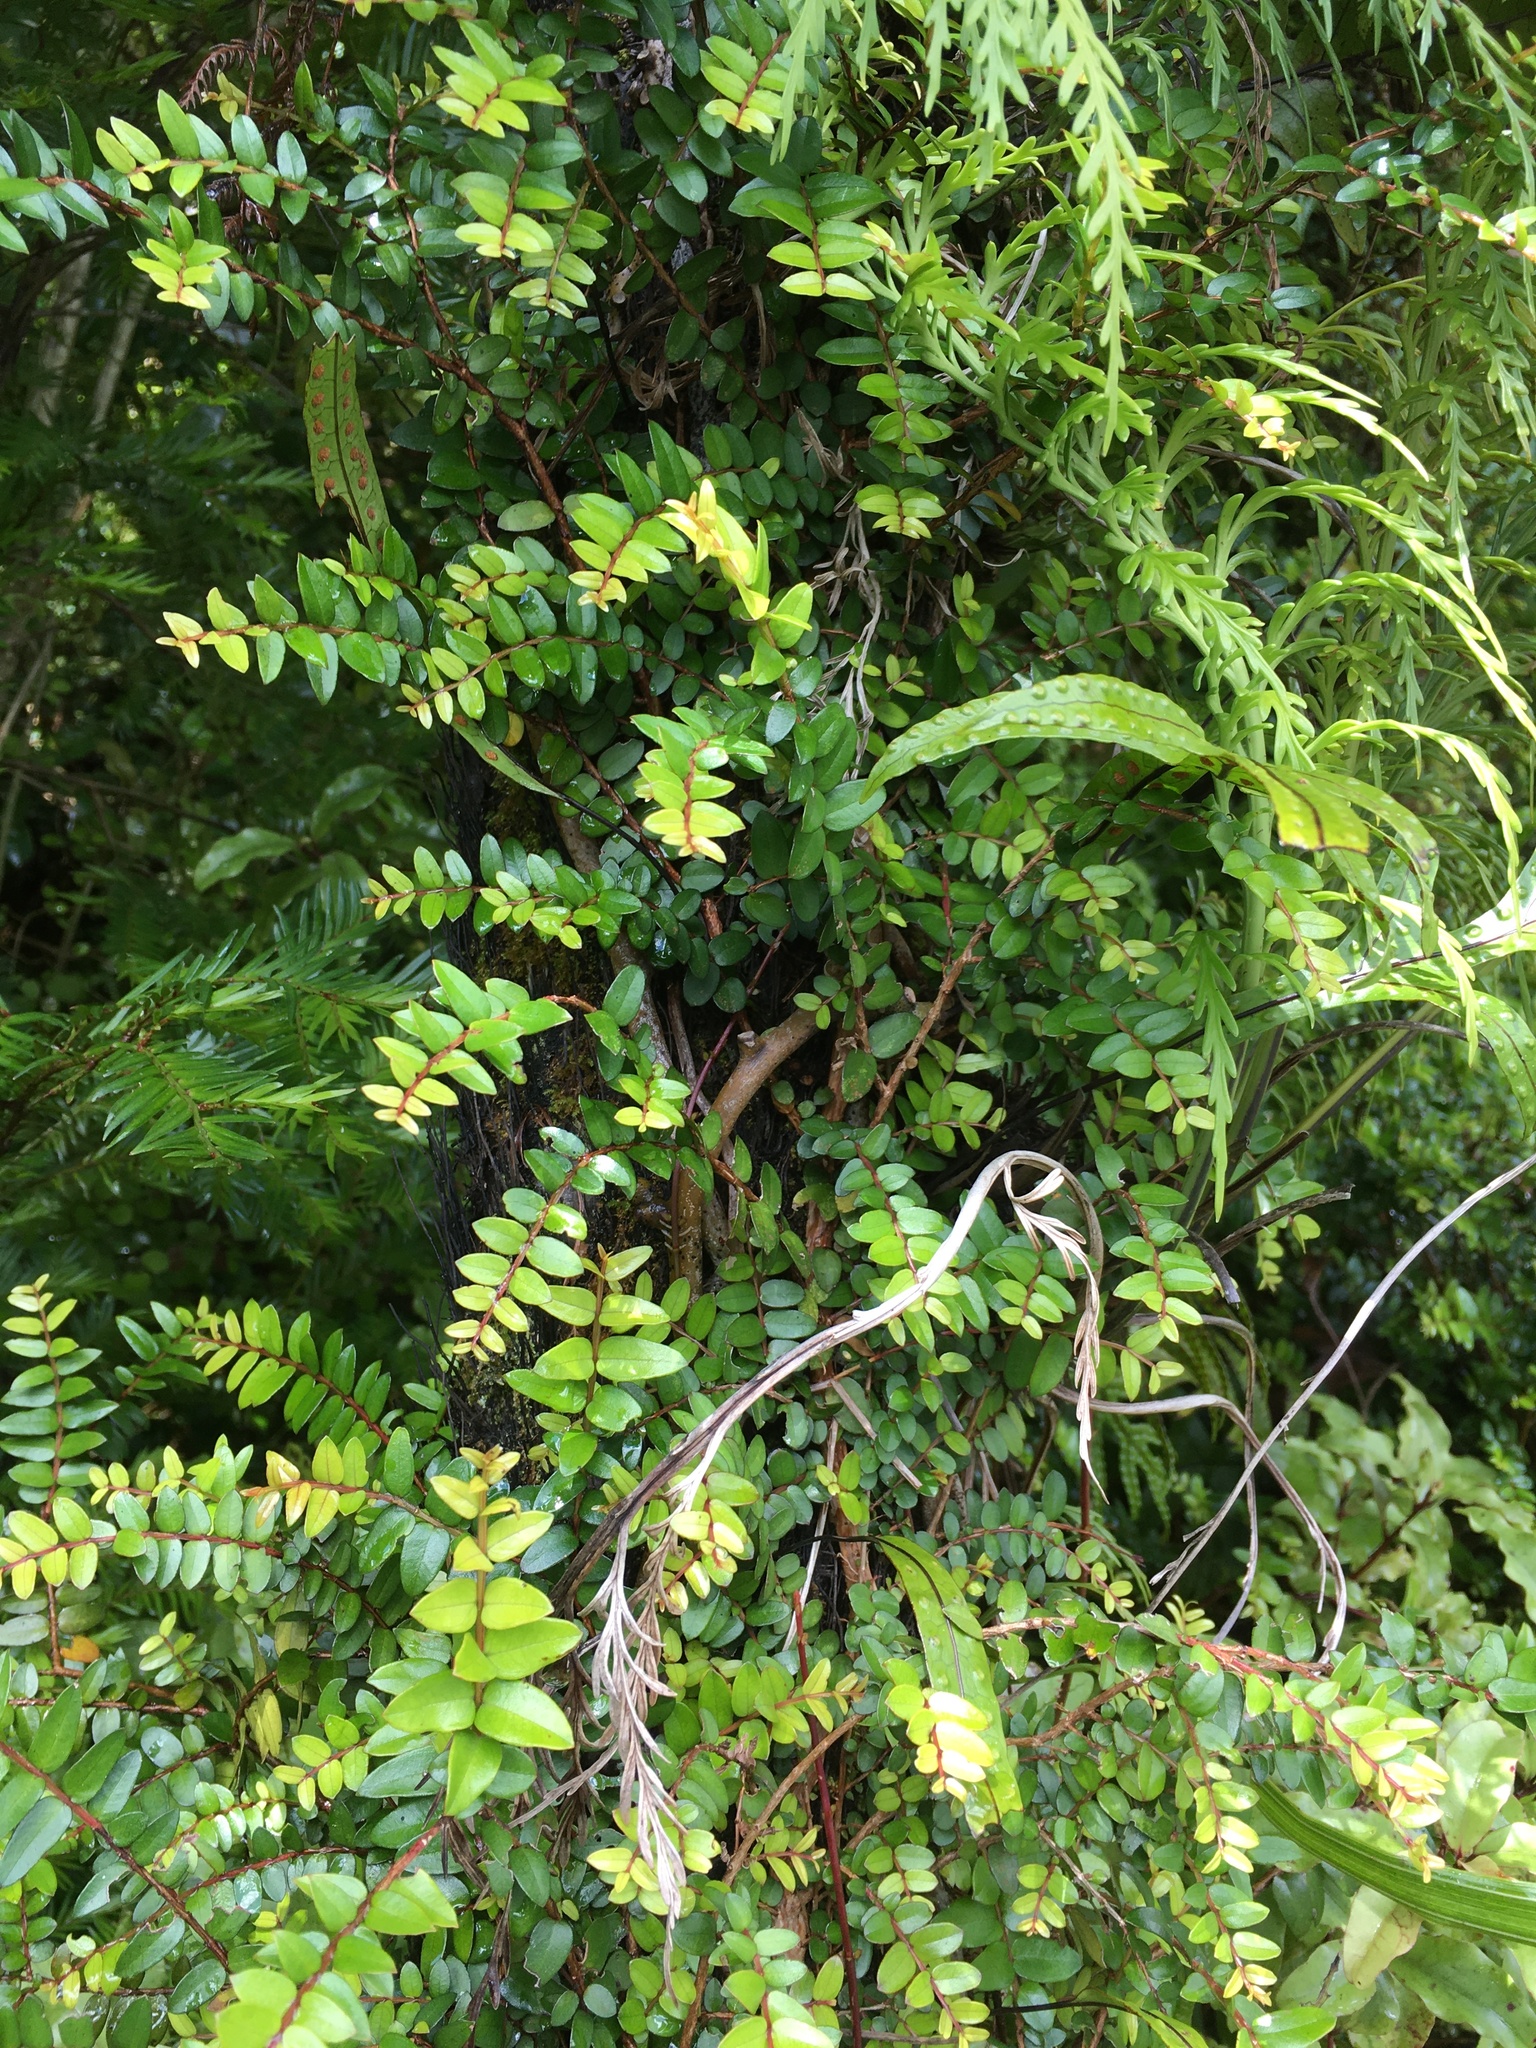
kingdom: Plantae
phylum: Tracheophyta
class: Magnoliopsida
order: Myrtales
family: Myrtaceae
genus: Metrosideros
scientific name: Metrosideros diffusa
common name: Small ratavine
